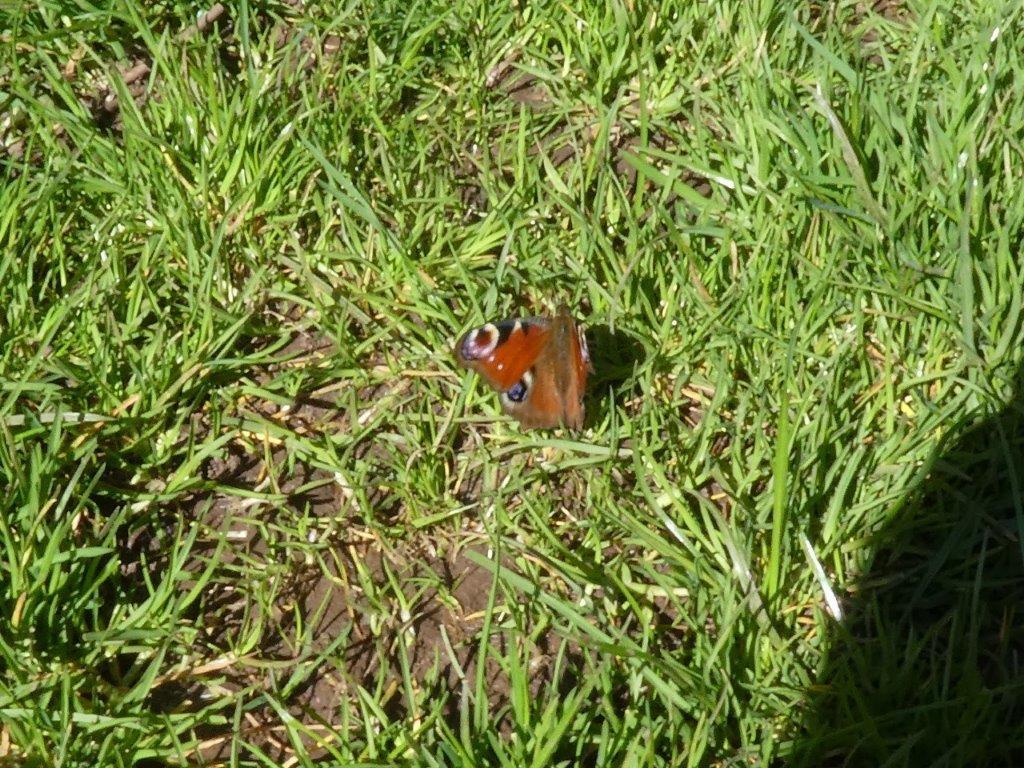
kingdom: Animalia
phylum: Arthropoda
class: Insecta
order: Lepidoptera
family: Nymphalidae
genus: Aglais
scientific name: Aglais io
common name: Peacock
